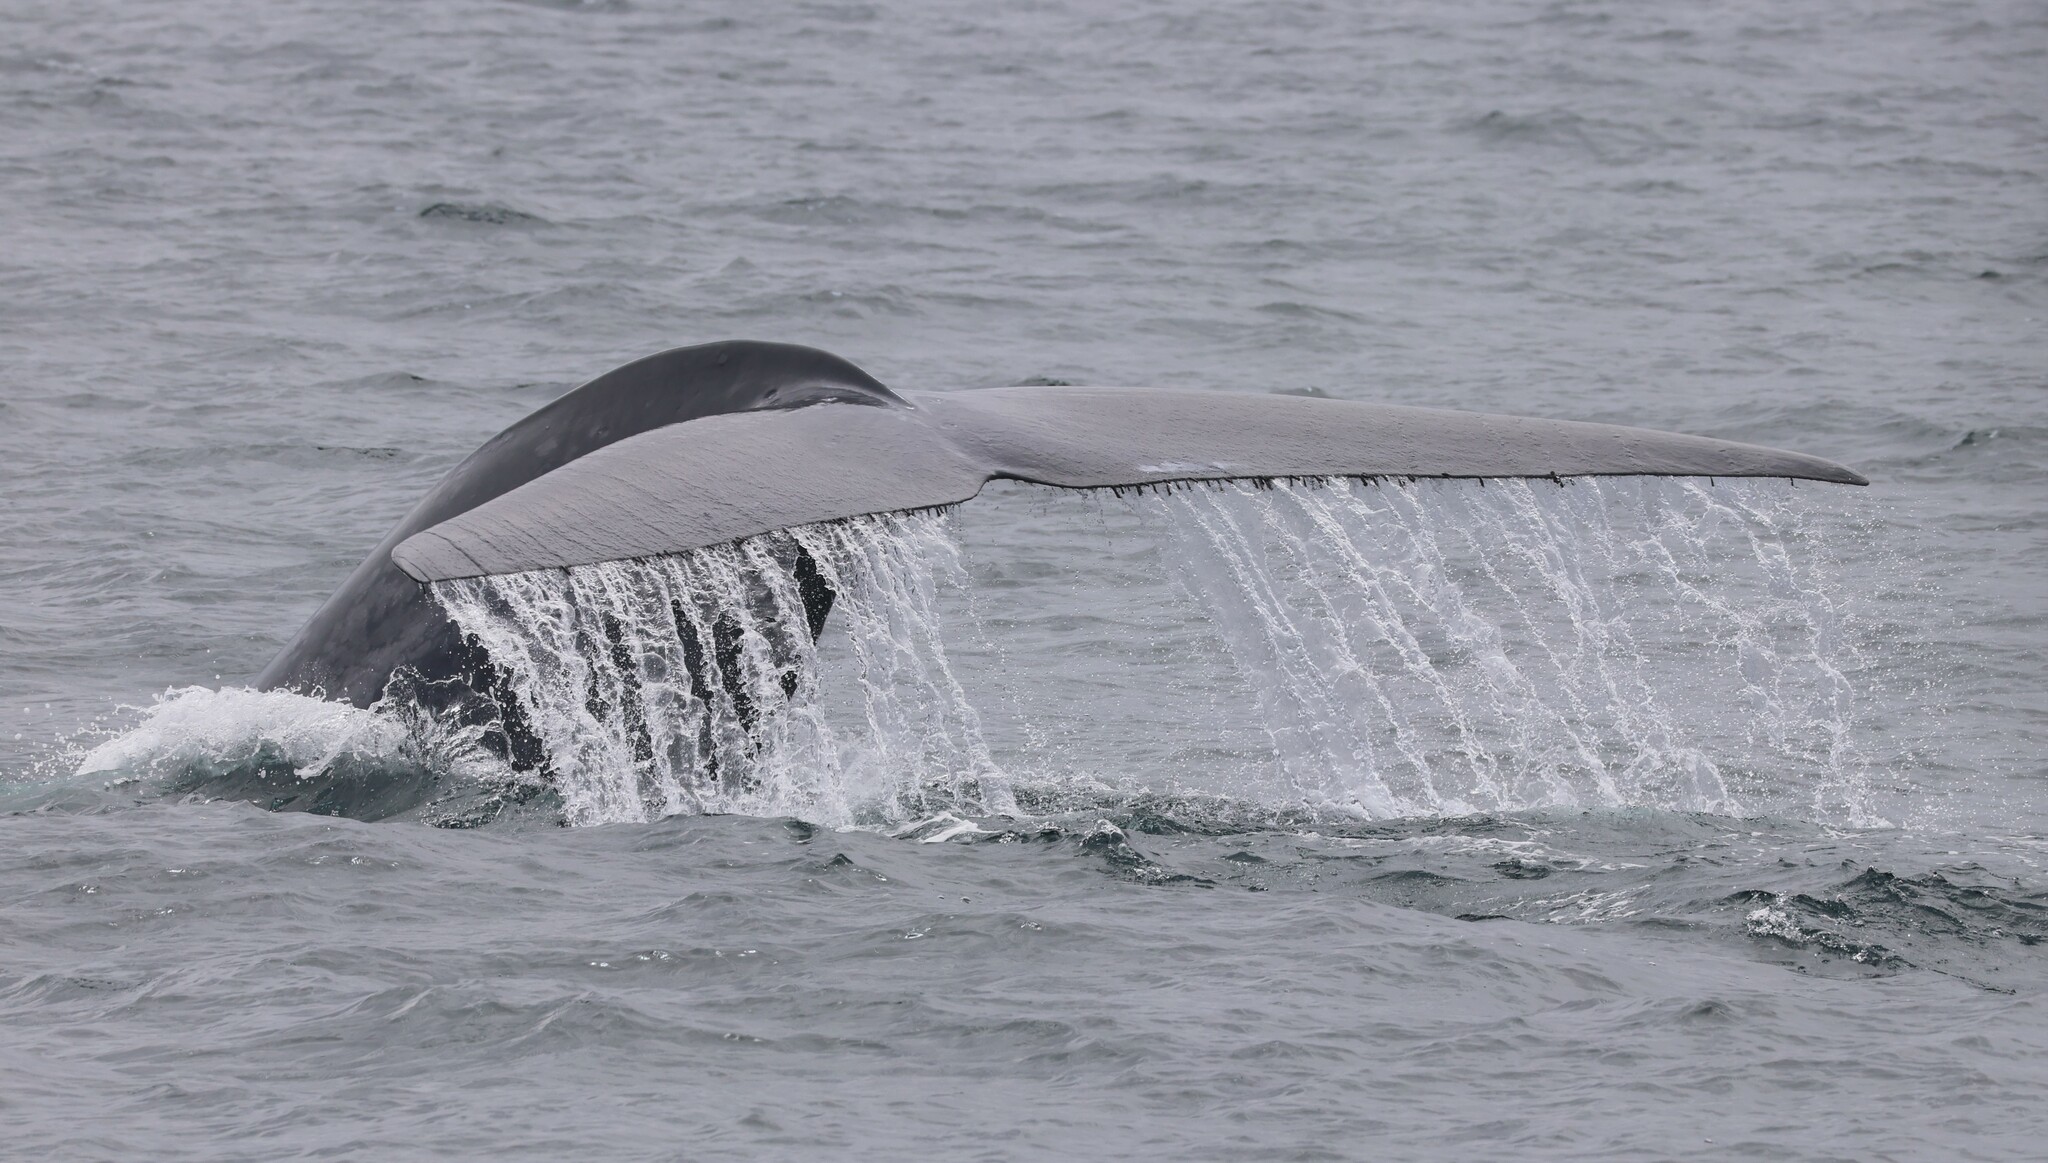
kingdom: Animalia
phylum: Arthropoda
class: Maxillopoda
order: Sessilia
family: Coronulidae
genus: Xenobalanus
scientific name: Xenobalanus globicipitis
